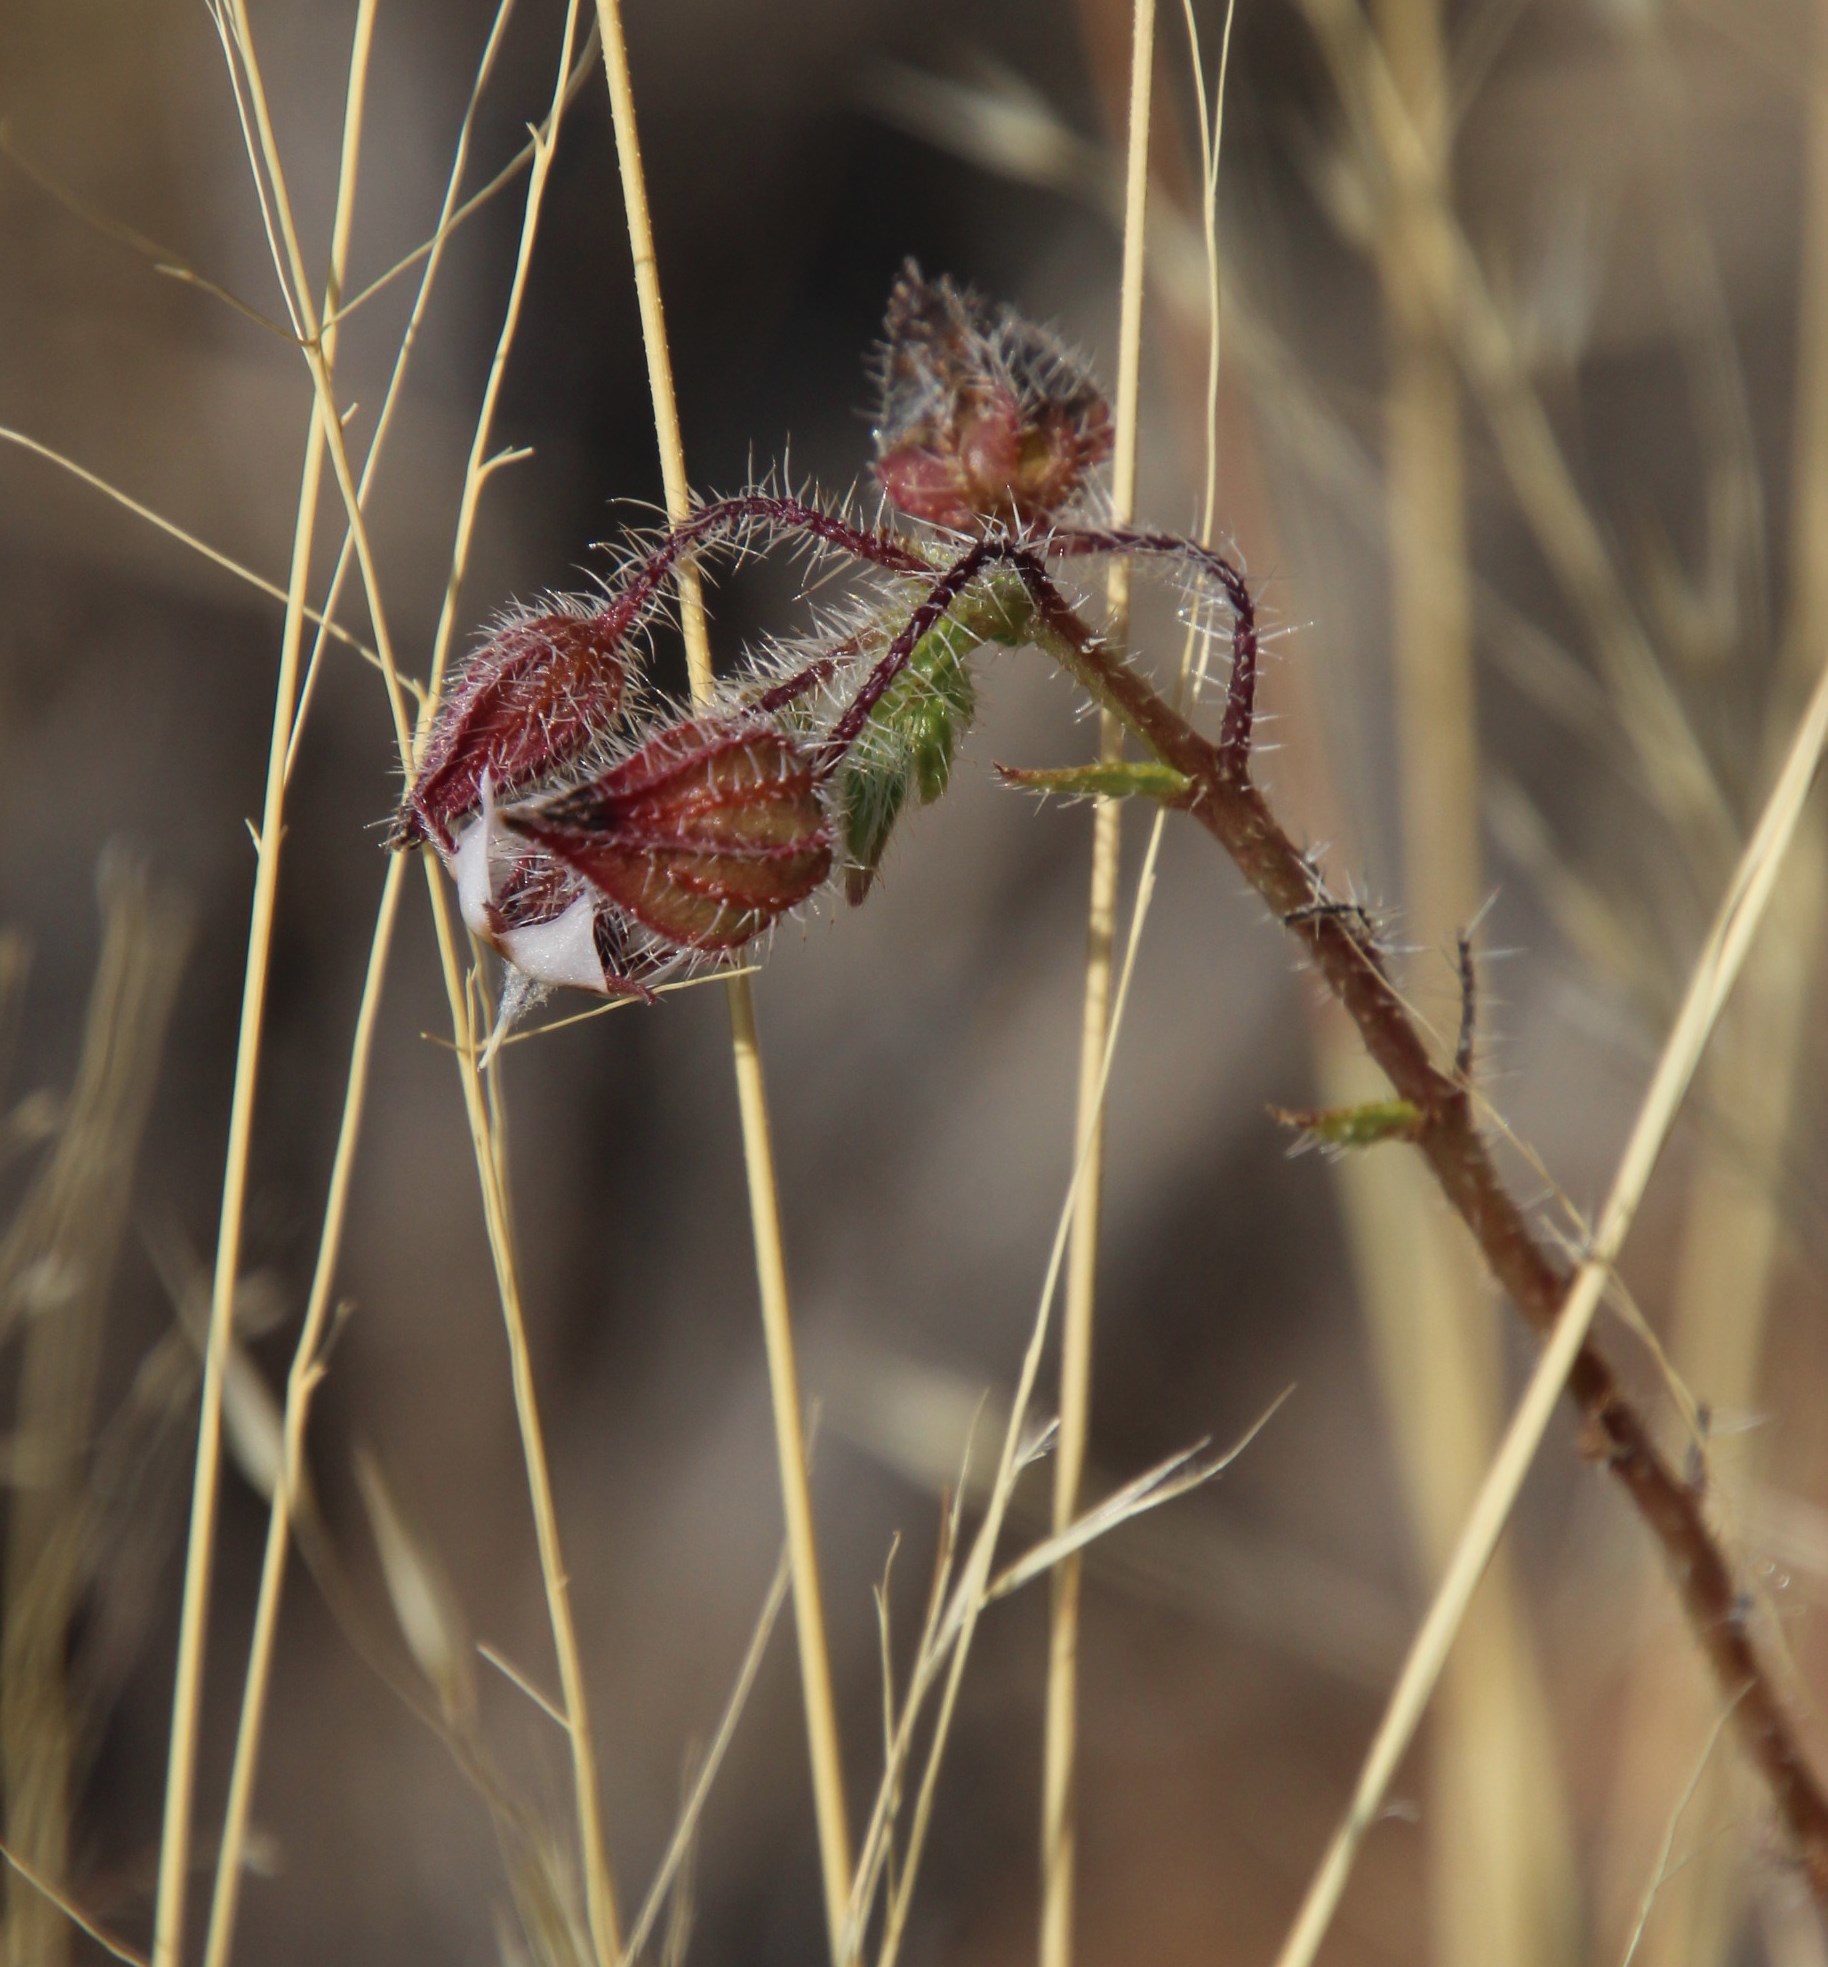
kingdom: Plantae
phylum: Tracheophyta
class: Magnoliopsida
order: Boraginales
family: Boraginaceae
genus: Trichodesma
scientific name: Trichodesma africanum
